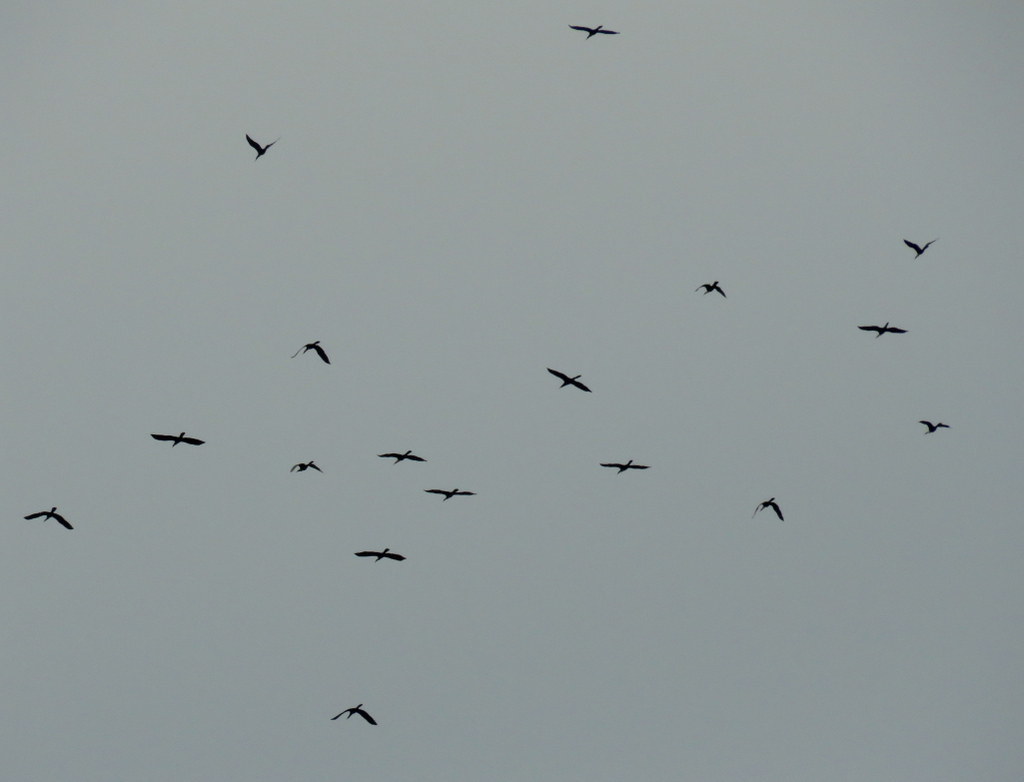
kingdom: Animalia
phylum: Chordata
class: Aves
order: Suliformes
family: Anhingidae
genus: Anhinga
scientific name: Anhinga anhinga
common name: Anhinga
